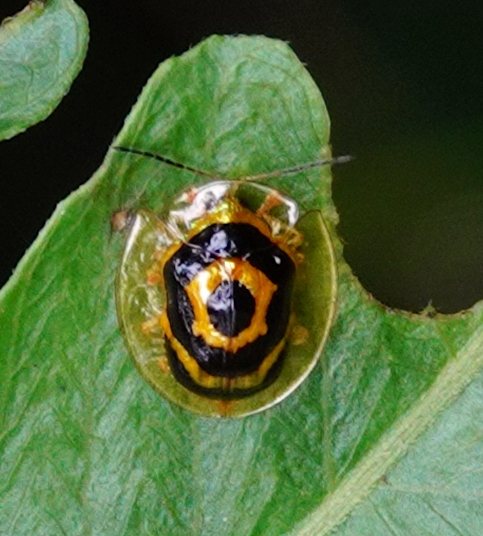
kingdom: Animalia
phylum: Arthropoda
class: Insecta
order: Coleoptera
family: Chrysomelidae
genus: Ischnocodia
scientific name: Ischnocodia annulus
